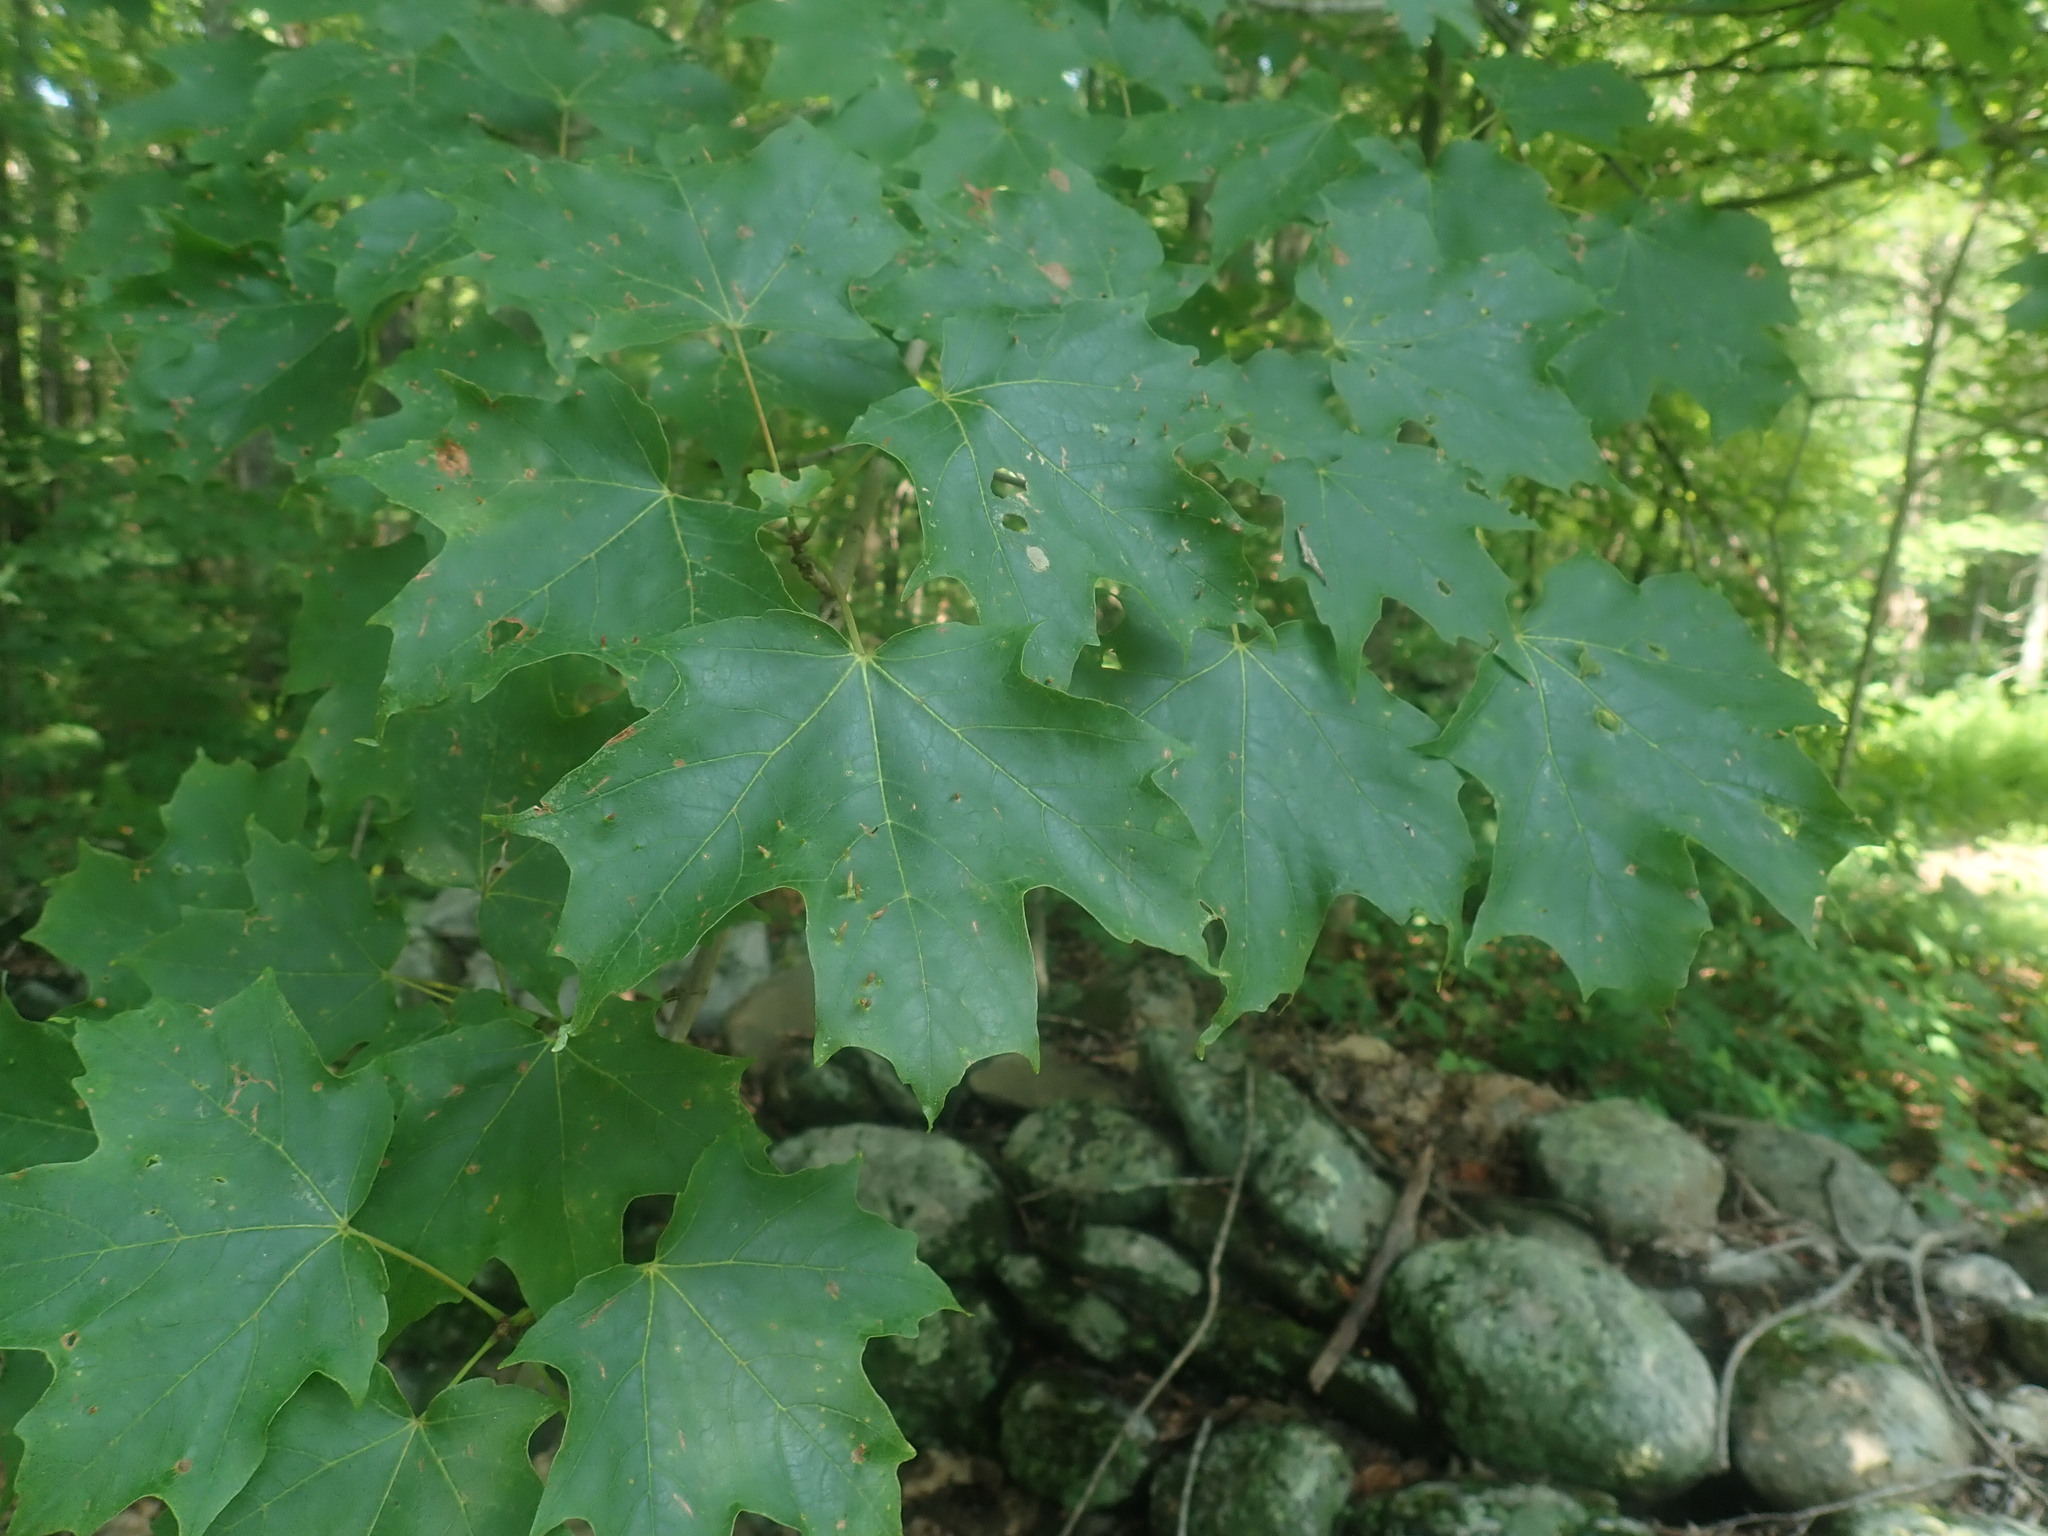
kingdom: Plantae
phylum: Tracheophyta
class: Magnoliopsida
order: Sapindales
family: Sapindaceae
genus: Acer
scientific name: Acer saccharum
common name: Sugar maple
